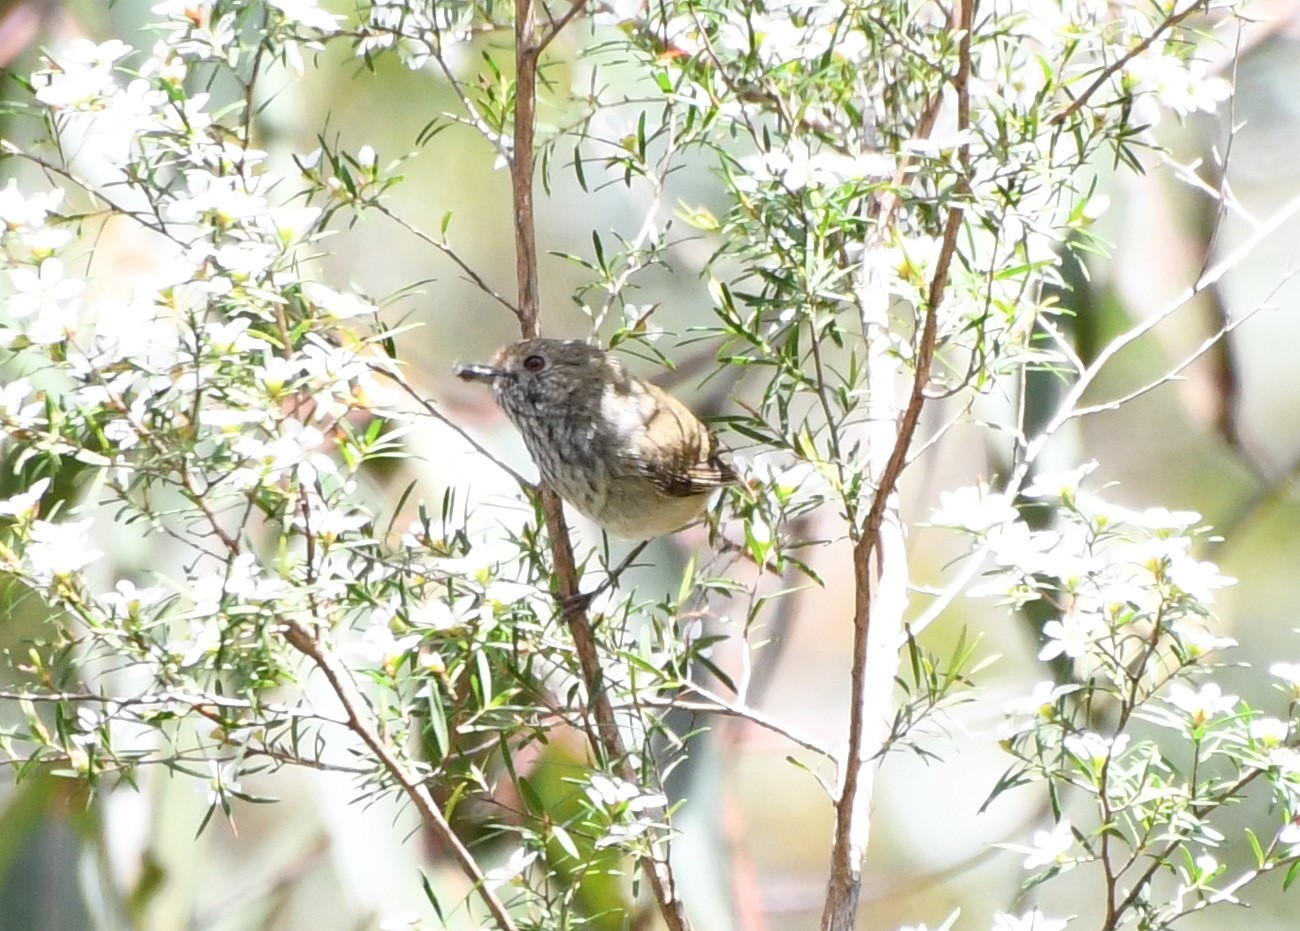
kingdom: Animalia
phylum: Chordata
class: Aves
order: Passeriformes
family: Acanthizidae
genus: Acanthiza
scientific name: Acanthiza pusilla
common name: Brown thornbill
